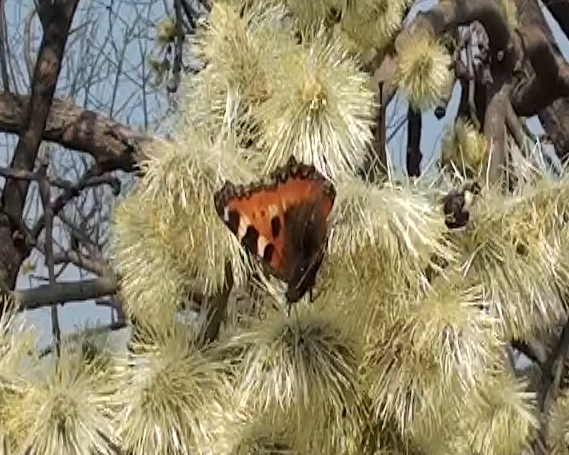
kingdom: Animalia
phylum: Arthropoda
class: Insecta
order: Lepidoptera
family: Nymphalidae
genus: Aglais
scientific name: Aglais urticae
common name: Small tortoiseshell
